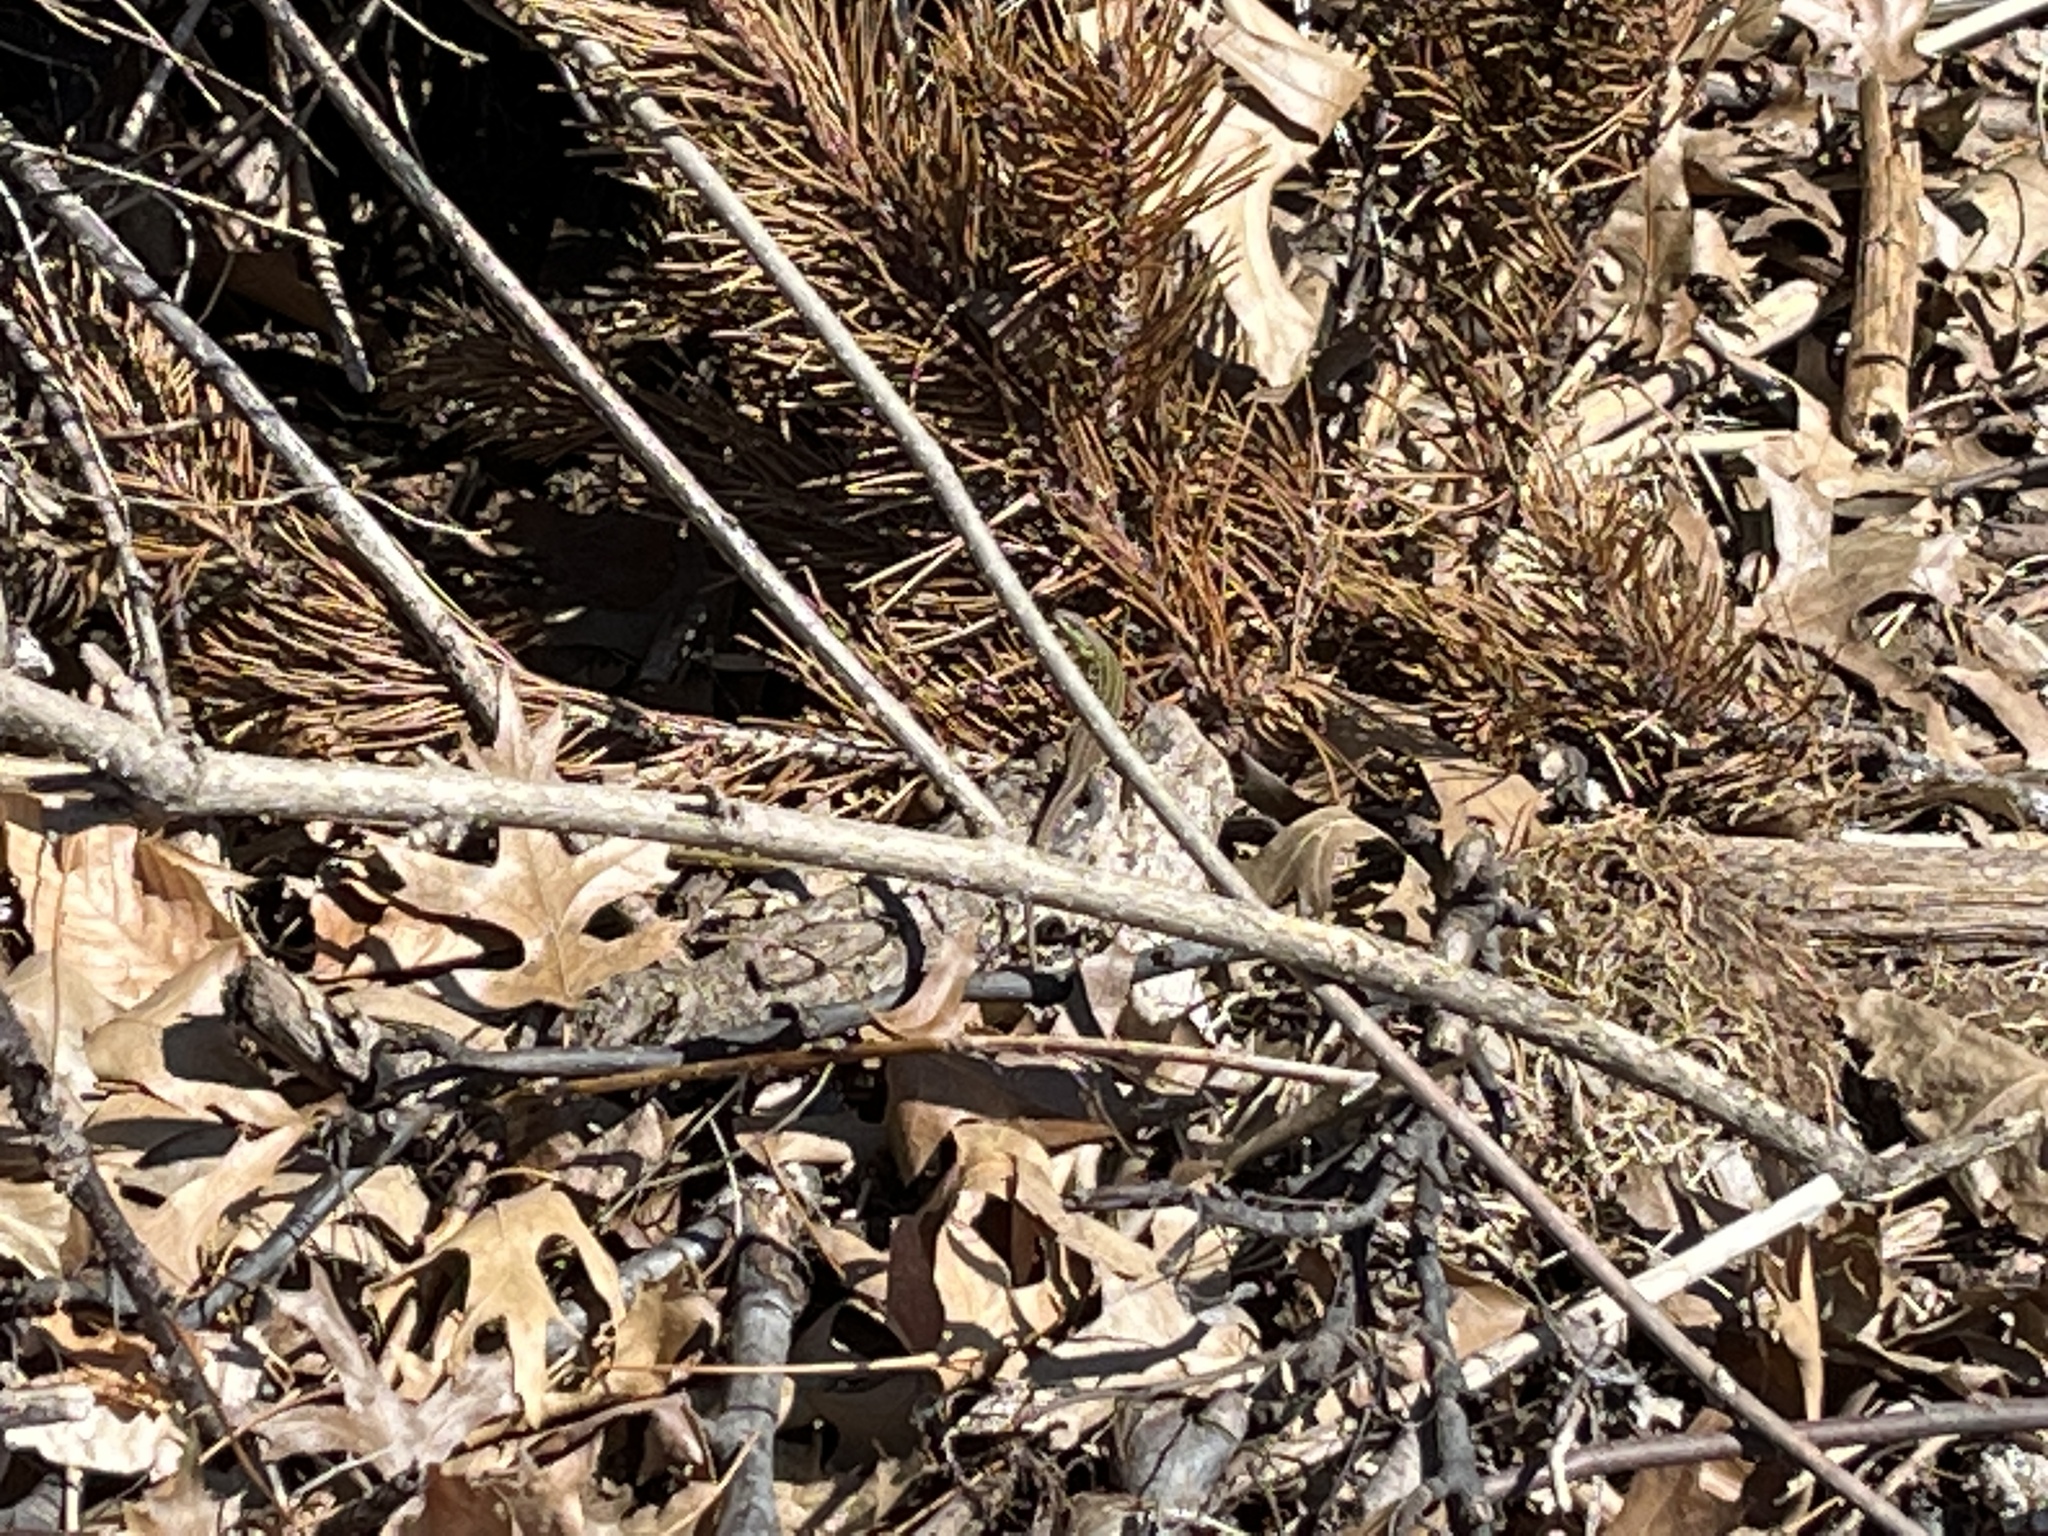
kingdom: Animalia
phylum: Chordata
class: Squamata
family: Lacertidae
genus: Podarcis
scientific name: Podarcis siculus
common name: Italian wall lizard
